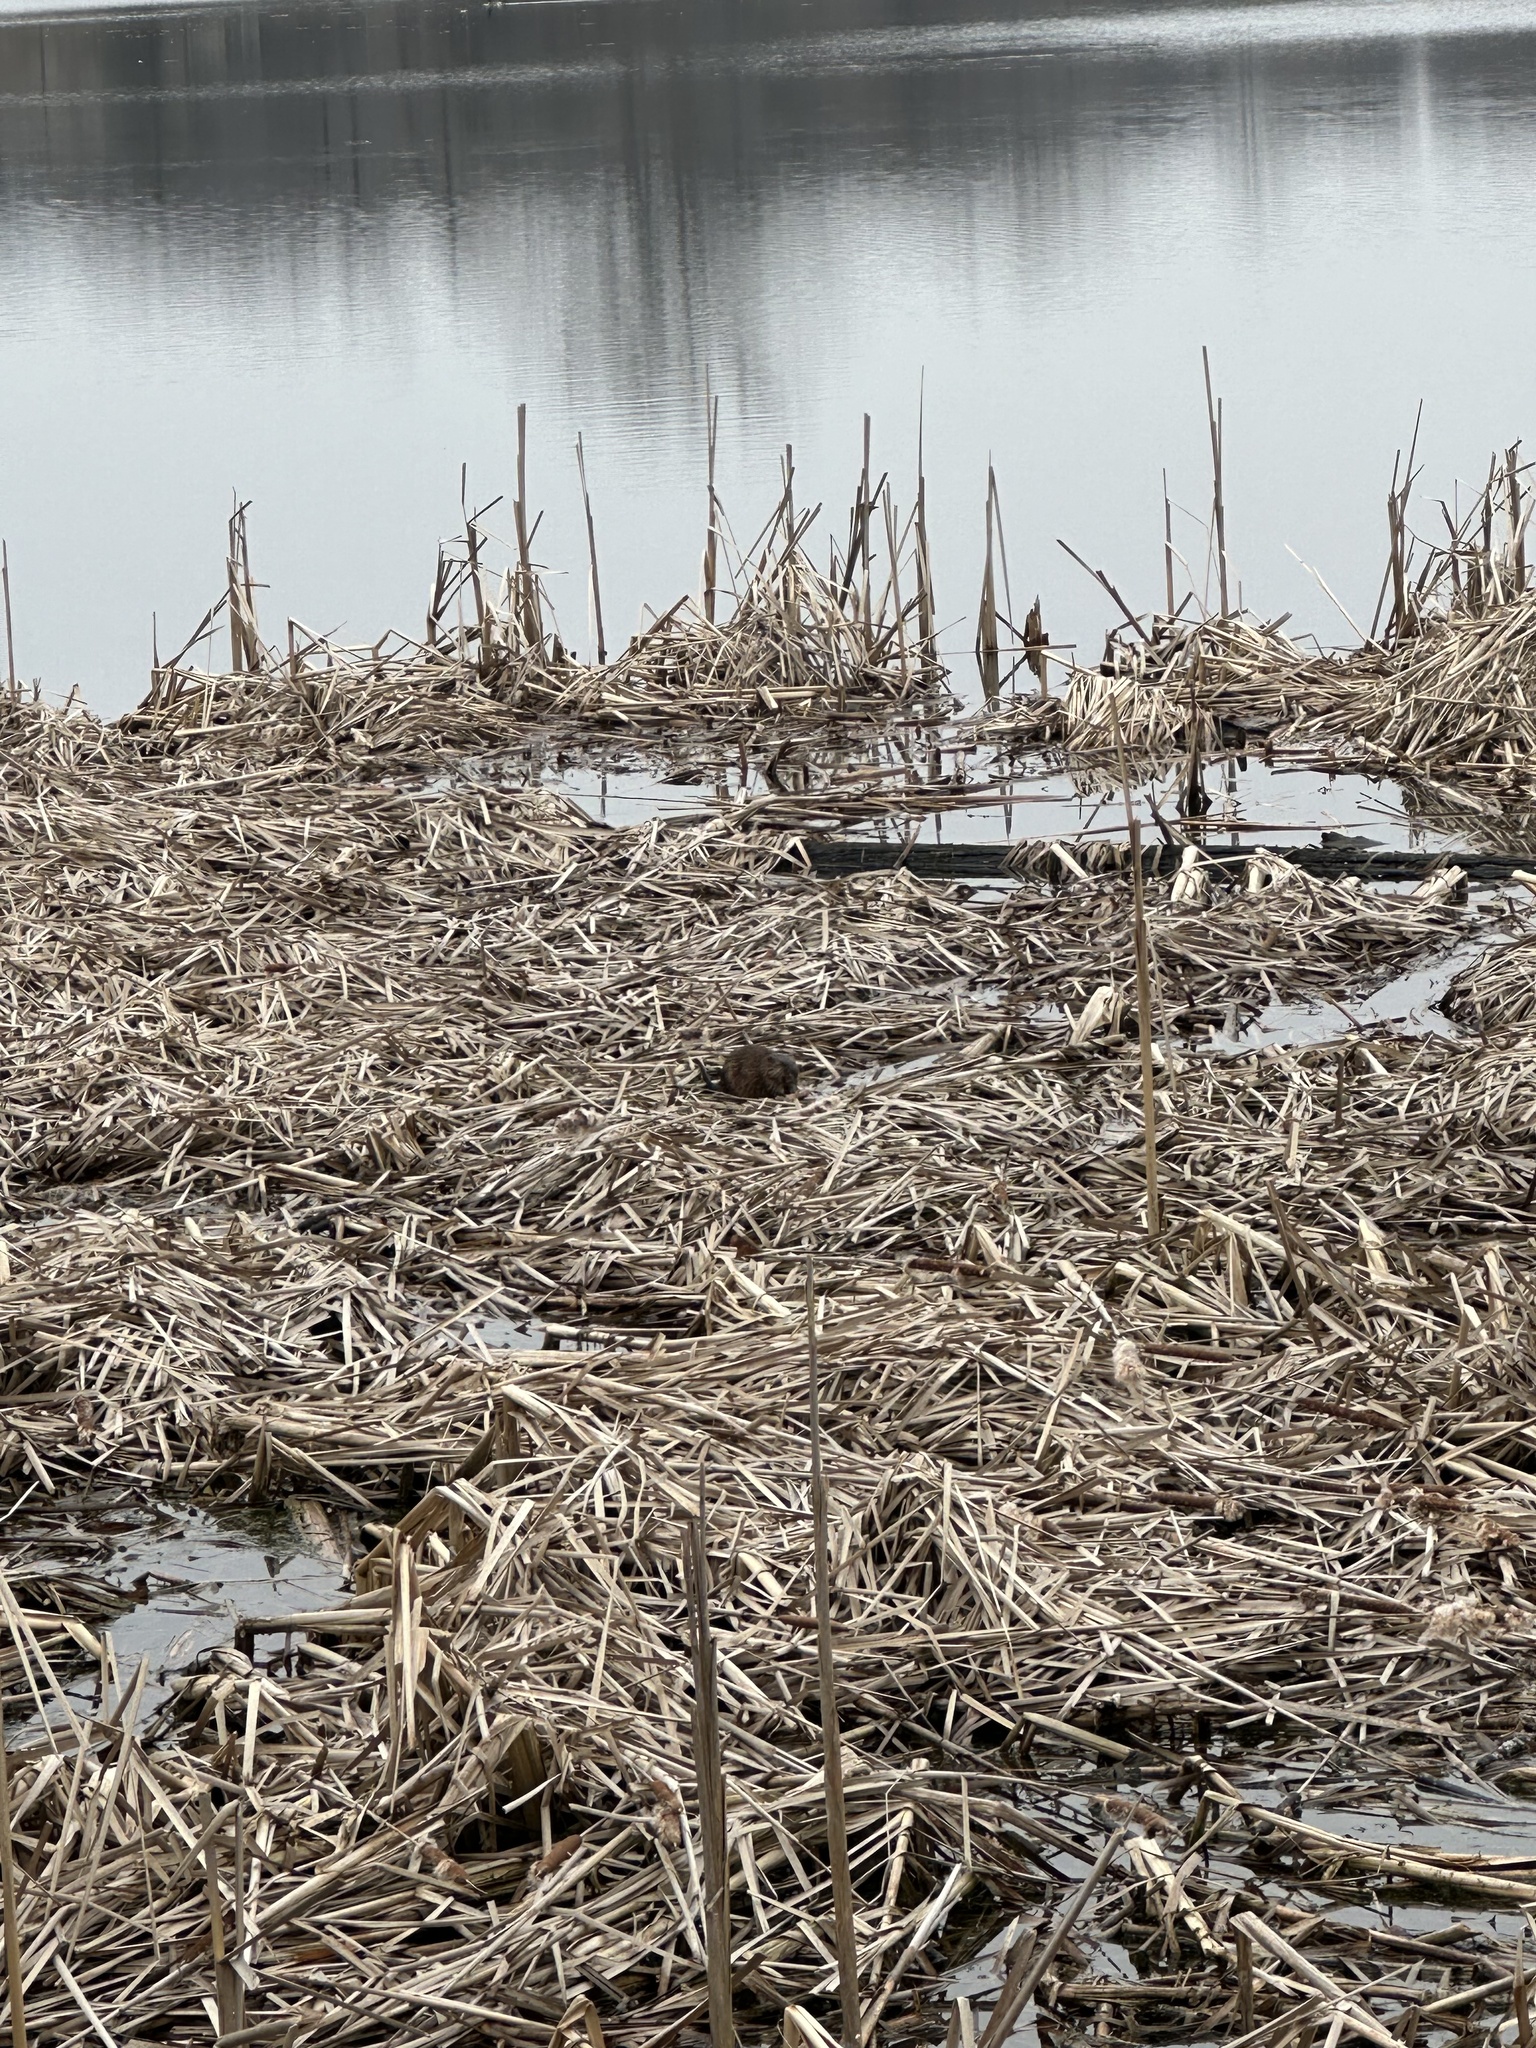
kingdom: Animalia
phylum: Chordata
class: Mammalia
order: Rodentia
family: Cricetidae
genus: Ondatra
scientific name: Ondatra zibethicus
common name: Muskrat
